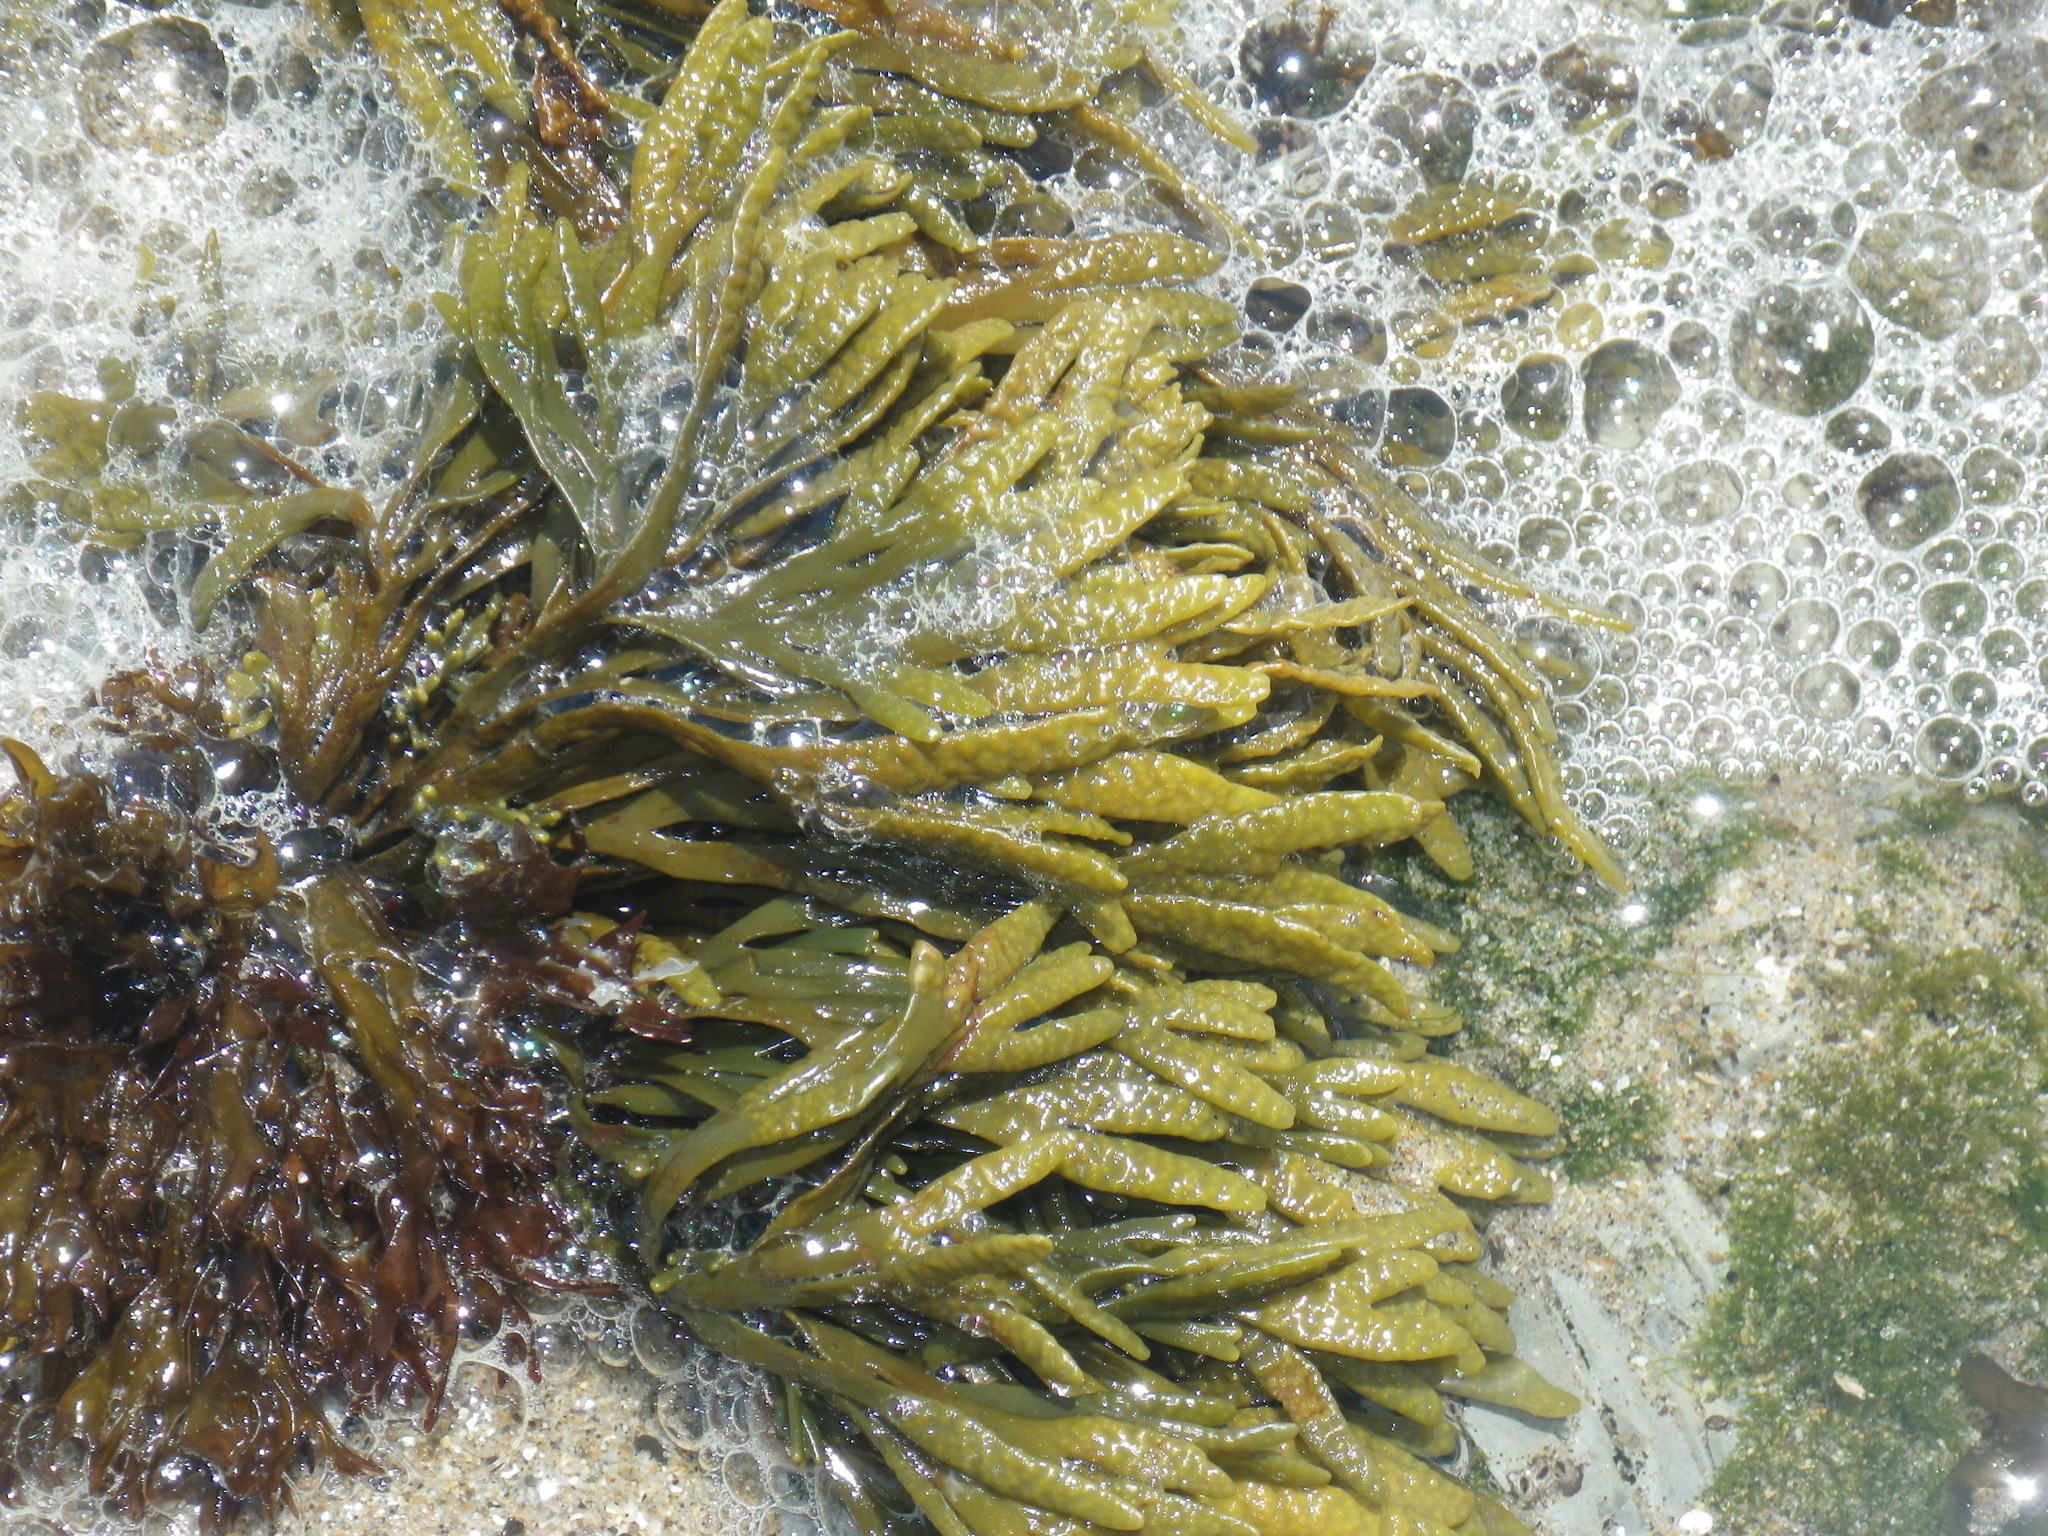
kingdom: Chromista
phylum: Ochrophyta
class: Phaeophyceae
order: Fucales
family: Fucaceae
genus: Pelvetiopsis
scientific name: Pelvetiopsis limitata
